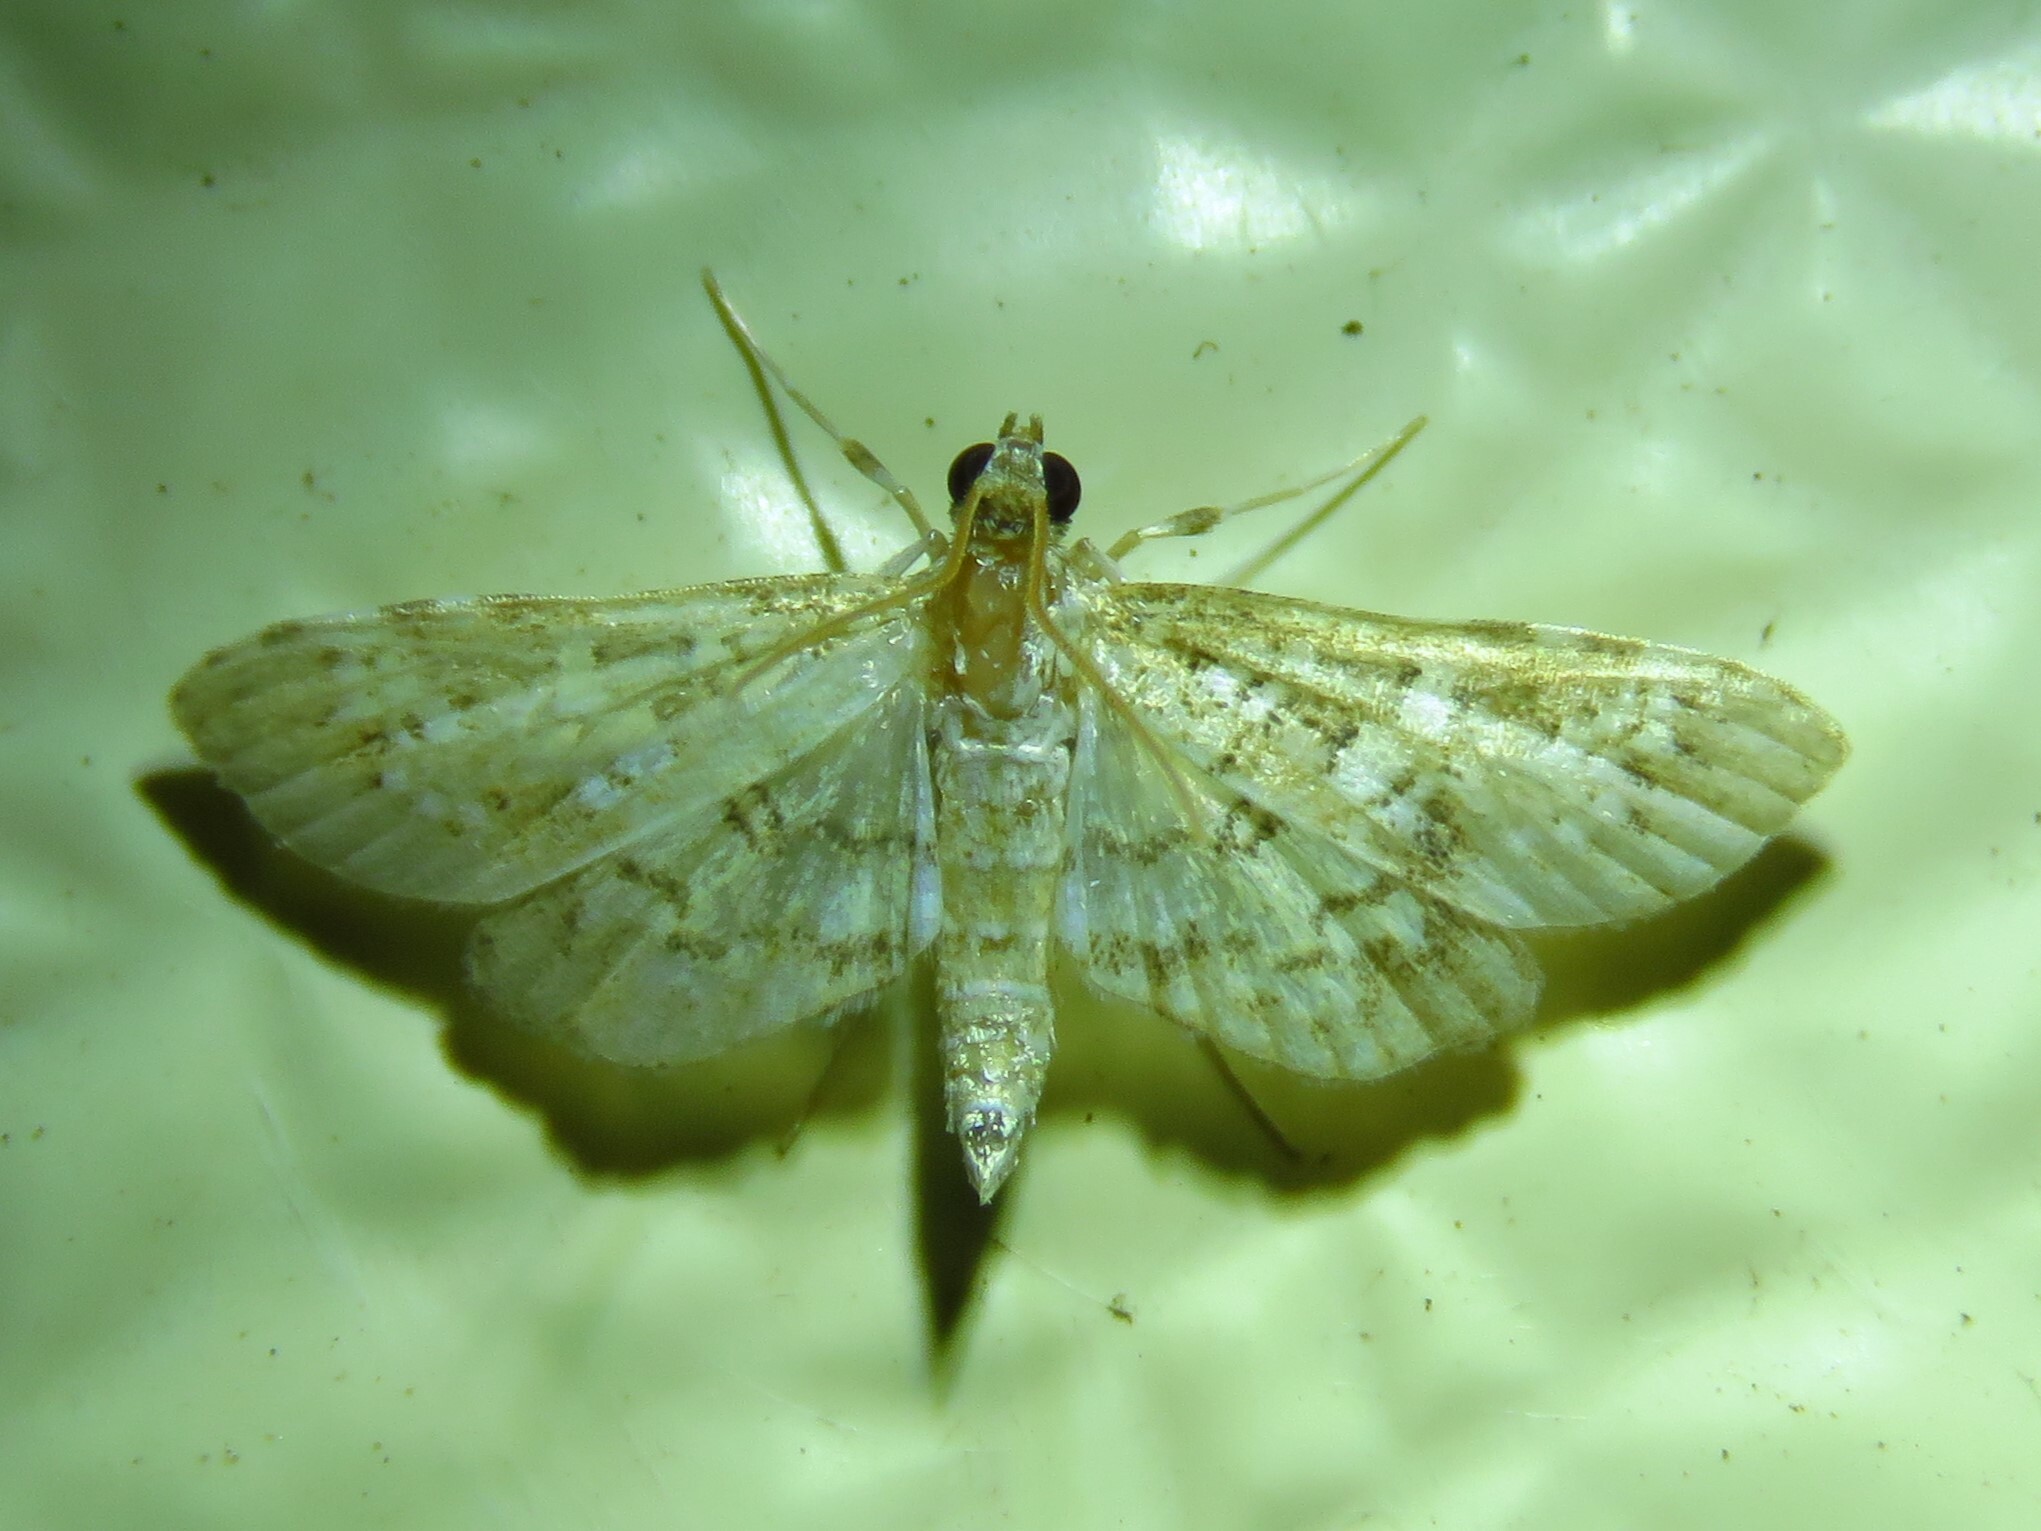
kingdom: Animalia
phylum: Arthropoda
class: Insecta
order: Lepidoptera
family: Crambidae
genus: Samea
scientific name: Samea multiplicalis
